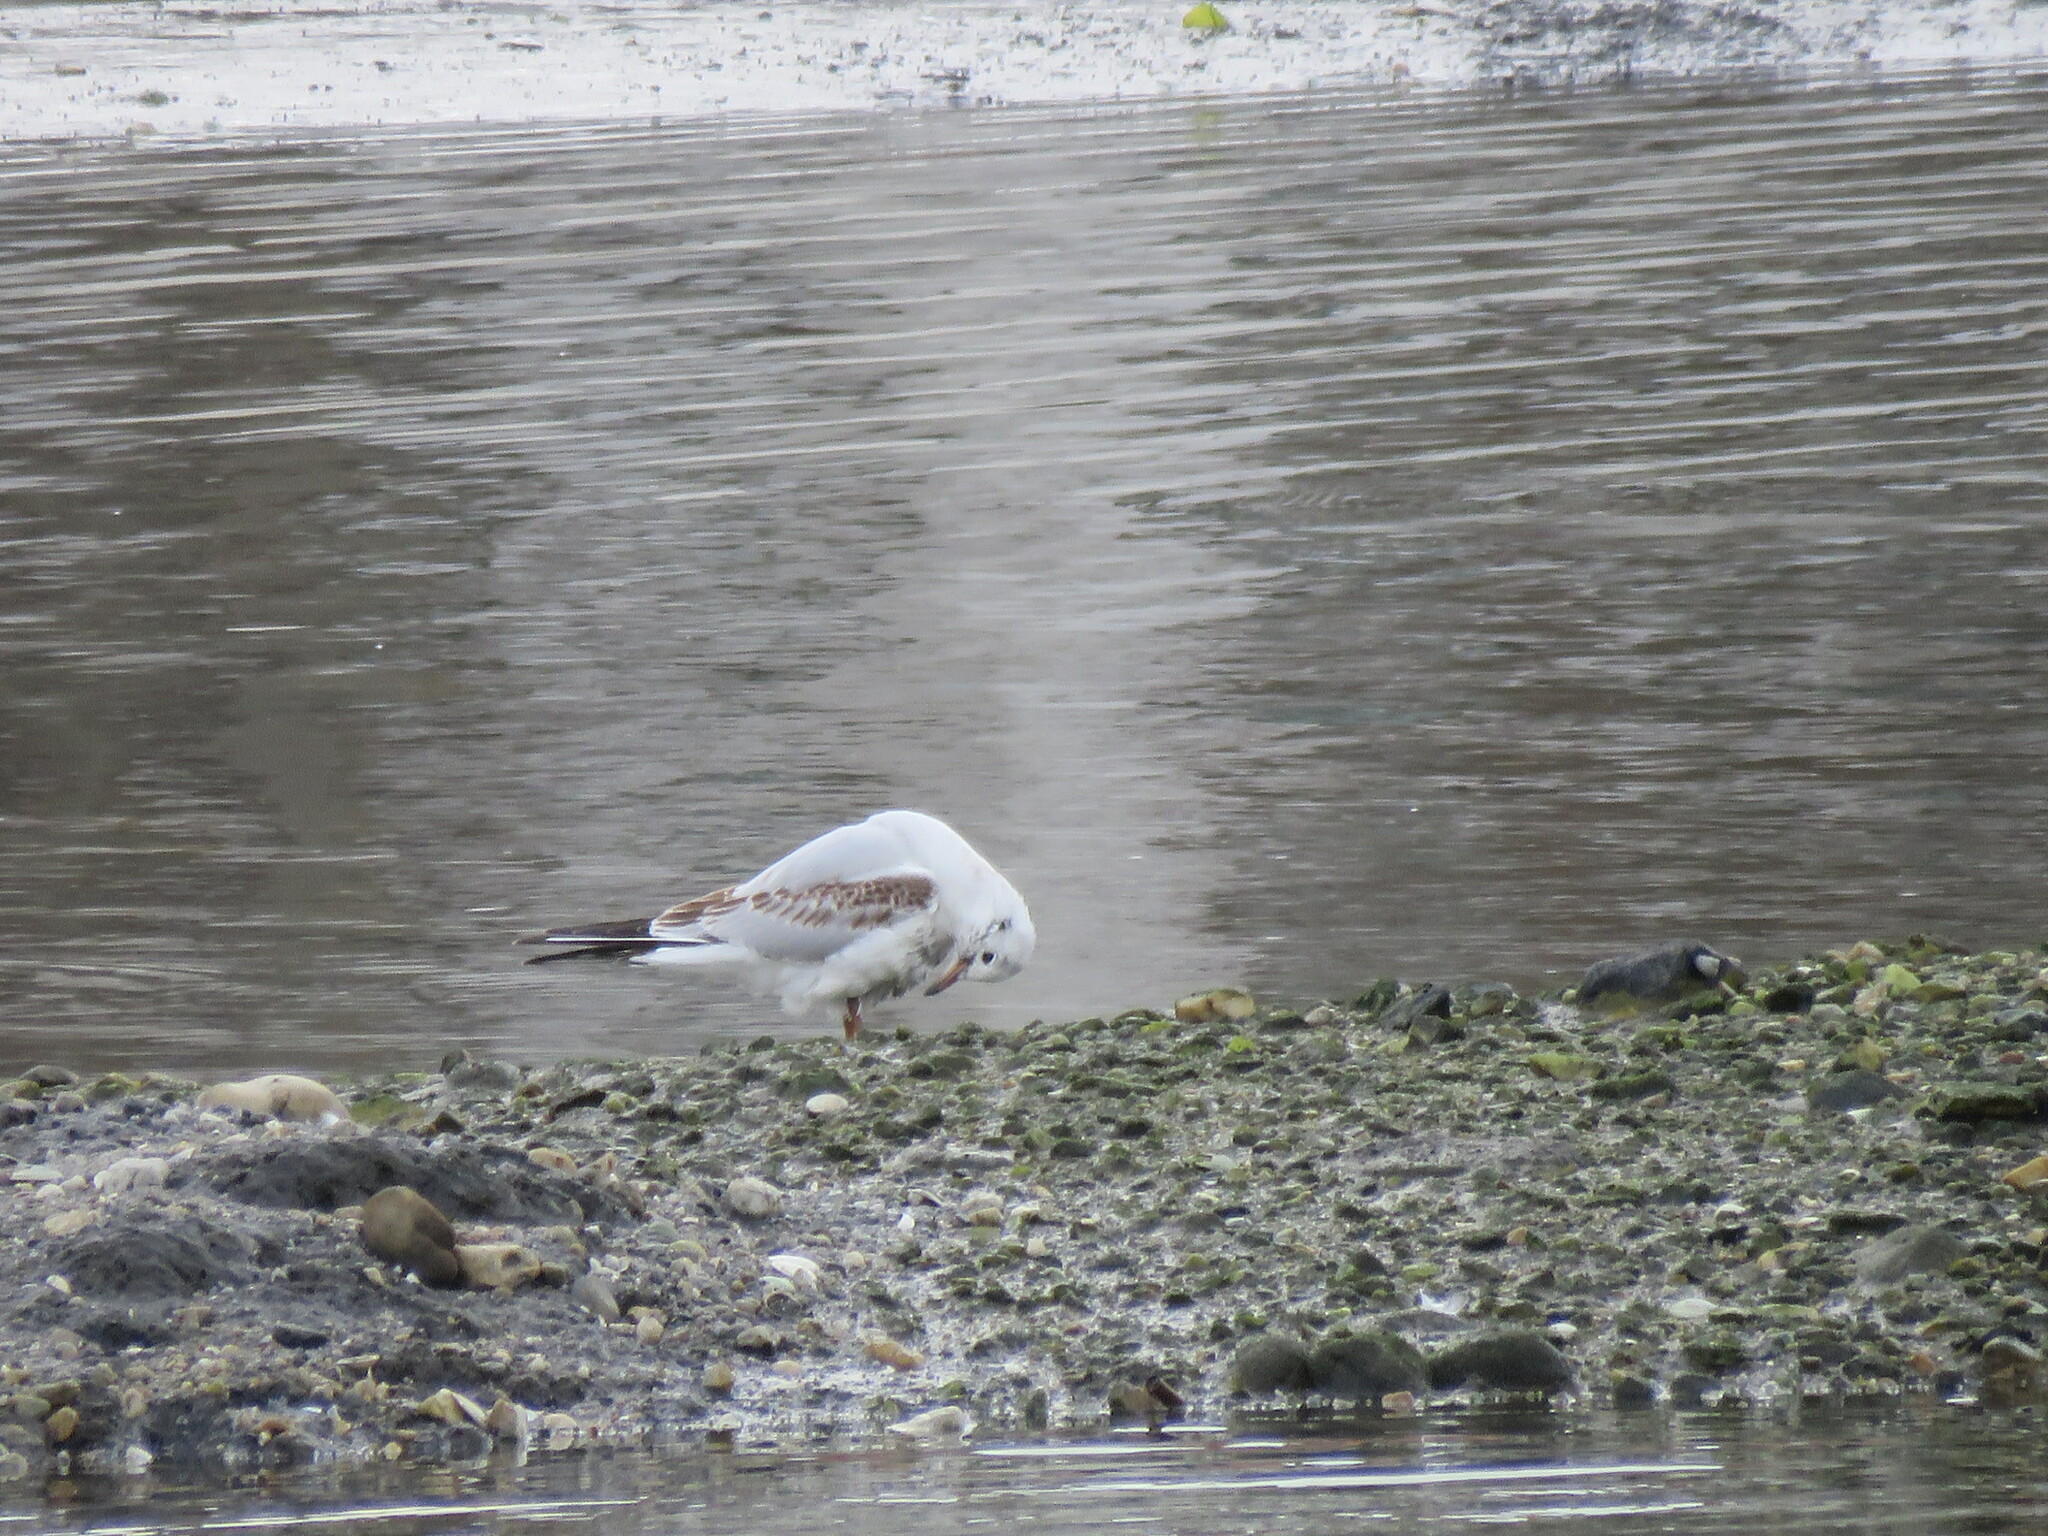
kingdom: Animalia
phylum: Chordata
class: Aves
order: Charadriiformes
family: Laridae
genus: Chroicocephalus
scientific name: Chroicocephalus ridibundus
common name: Black-headed gull
